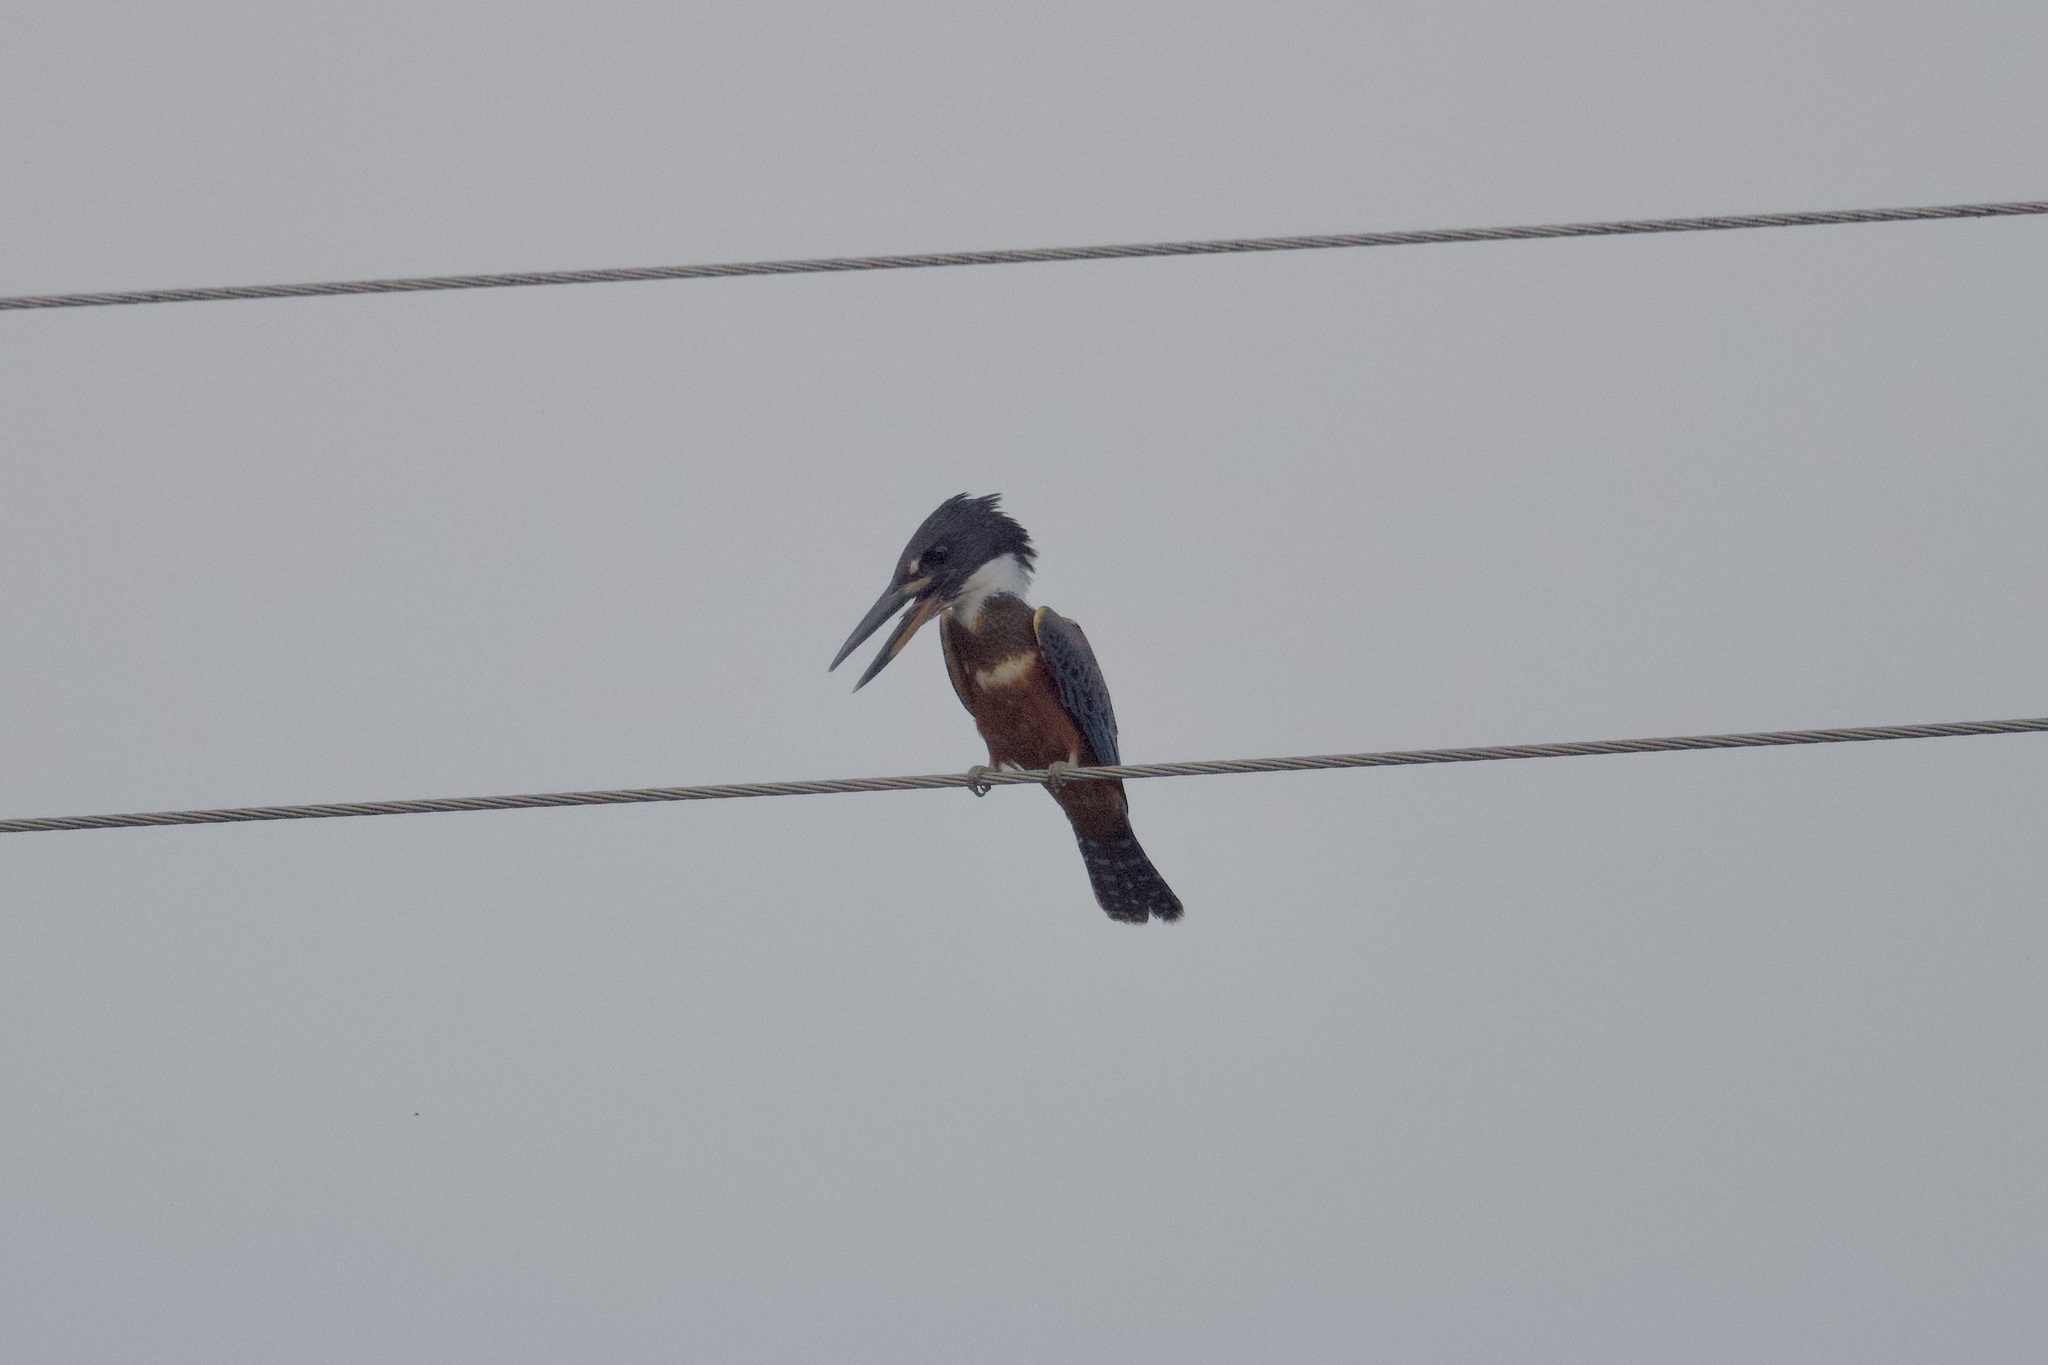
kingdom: Animalia
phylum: Chordata
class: Aves
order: Coraciiformes
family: Alcedinidae
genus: Megaceryle
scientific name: Megaceryle torquata
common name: Ringed kingfisher
